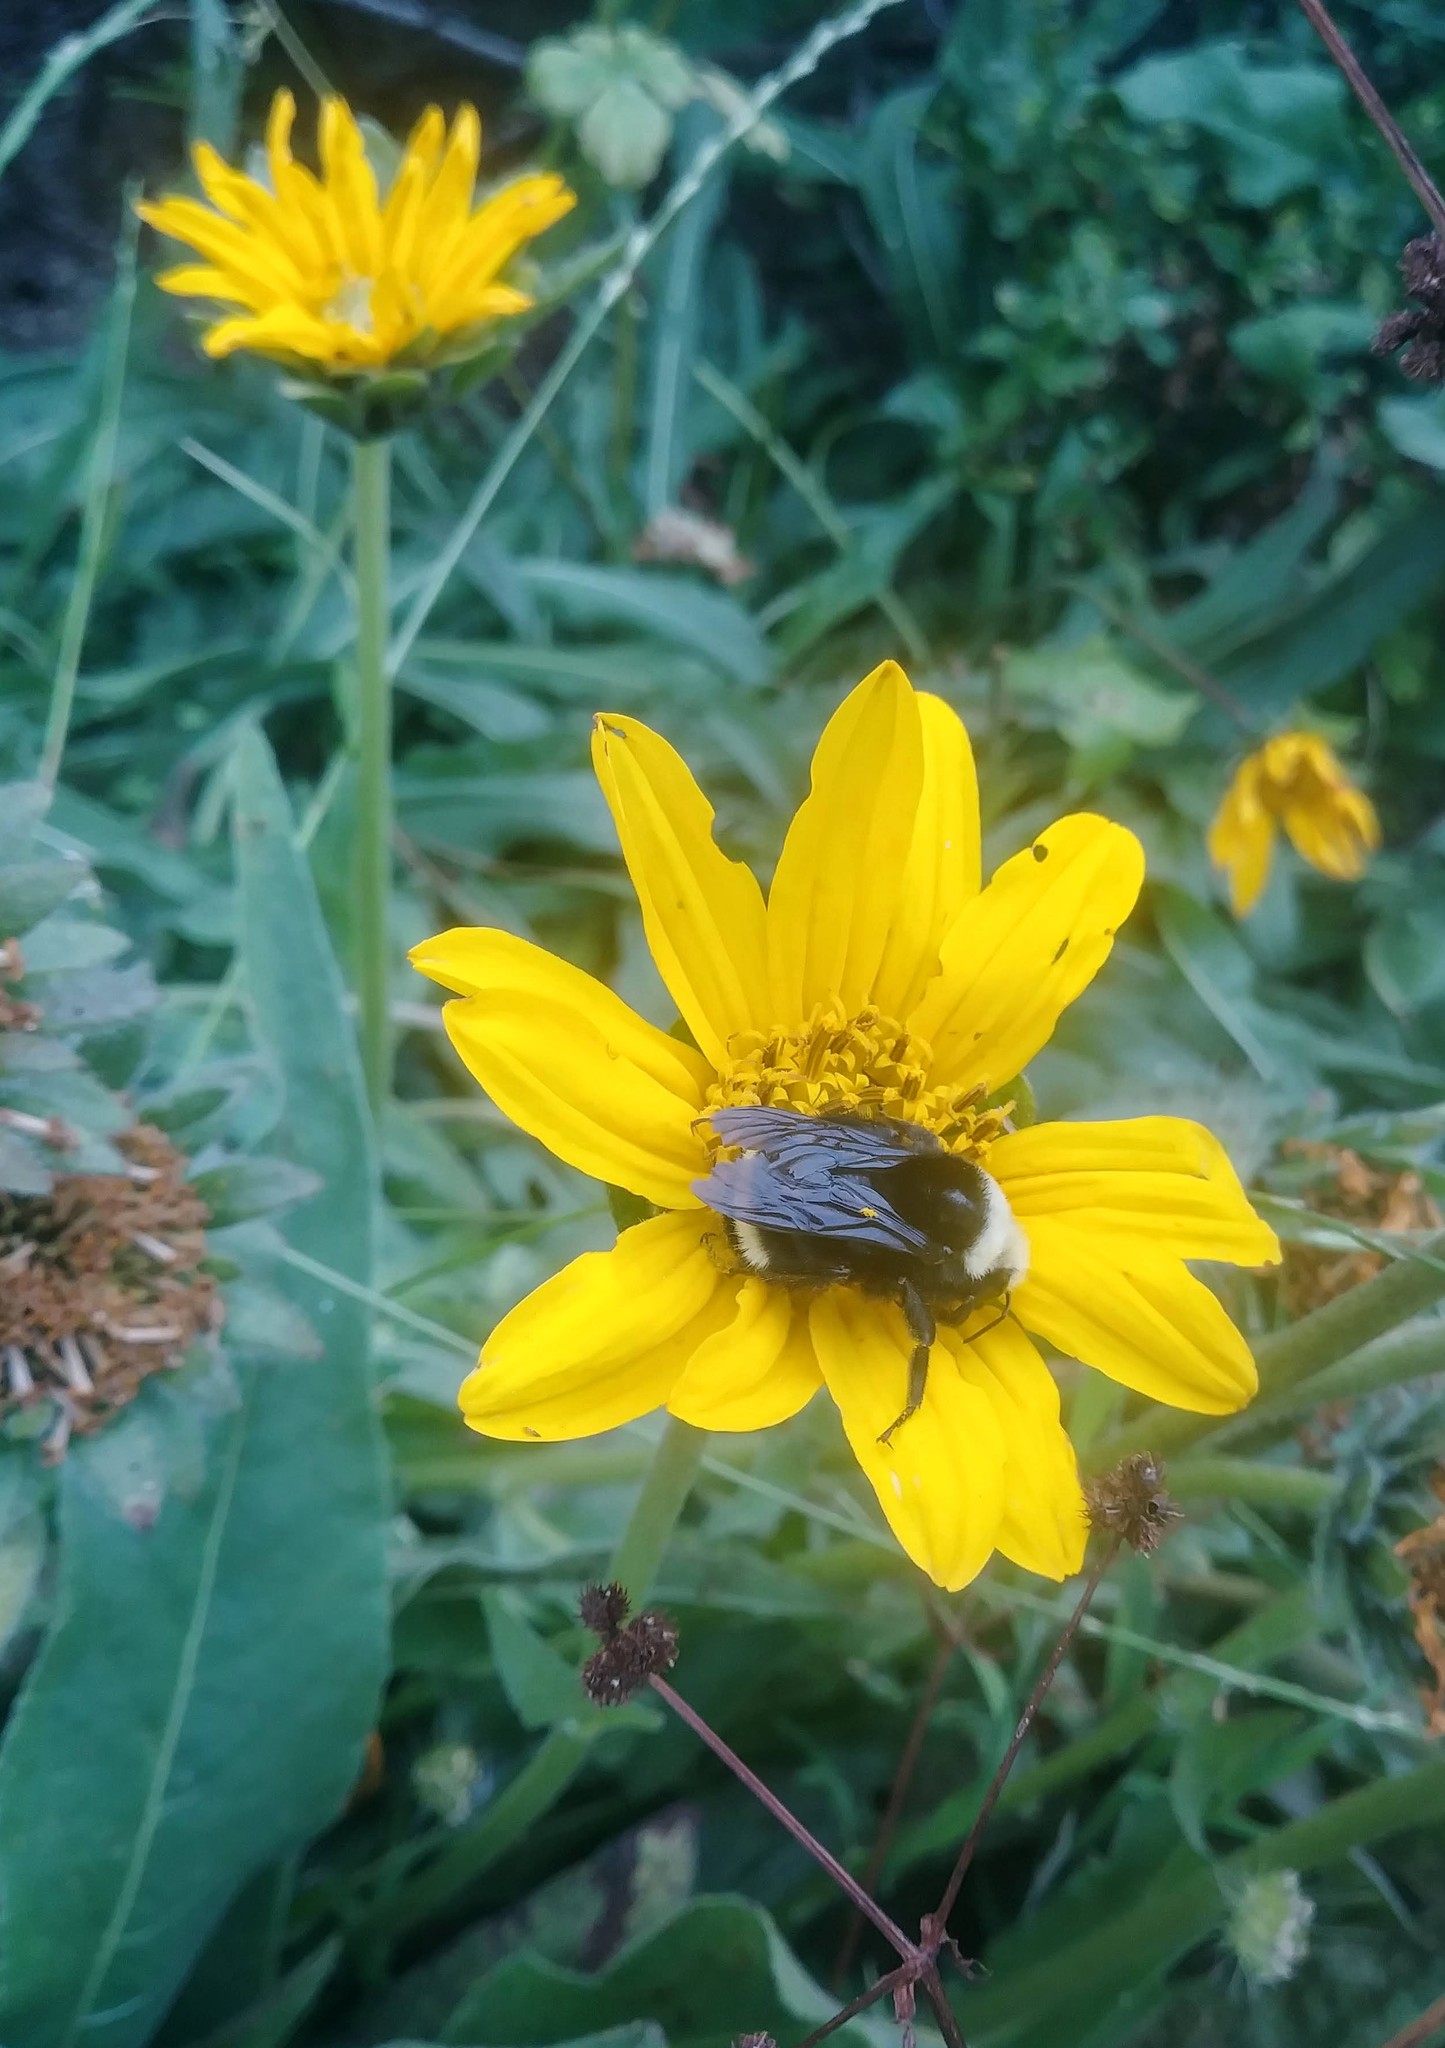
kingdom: Plantae
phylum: Tracheophyta
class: Magnoliopsida
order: Asterales
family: Asteraceae
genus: Wyethia
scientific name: Wyethia angustifolia
